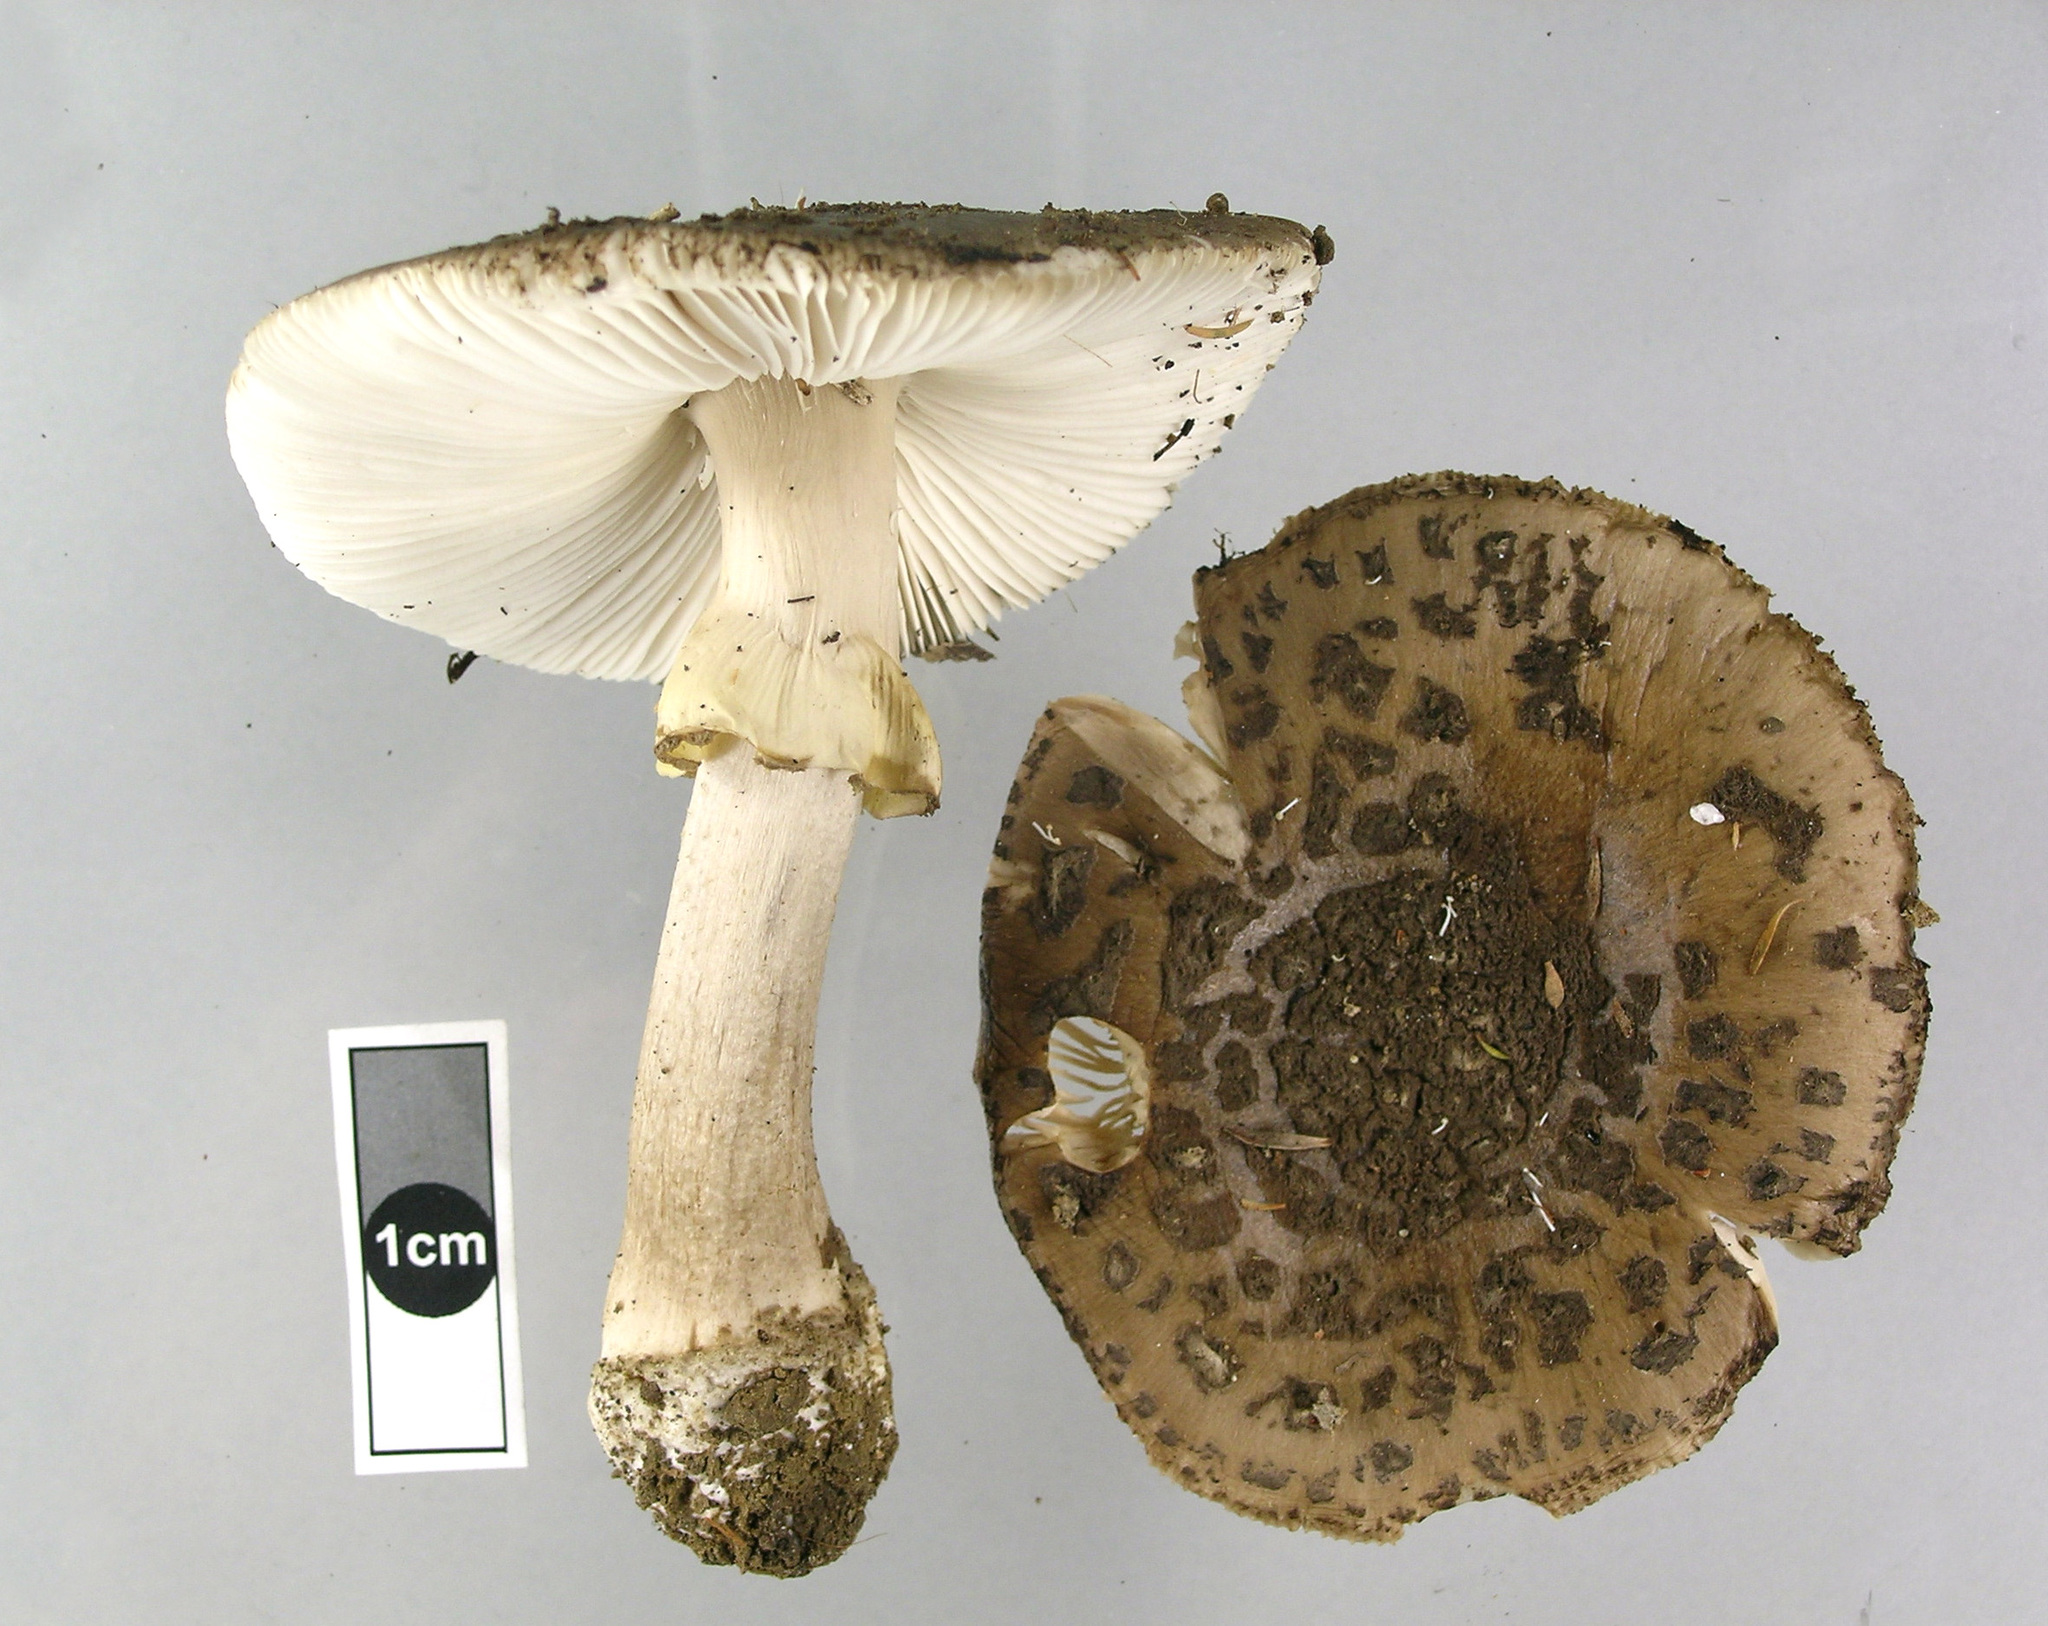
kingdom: Fungi
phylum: Basidiomycota
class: Agaricomycetes
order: Agaricales
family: Amanitaceae
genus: Amanita
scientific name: Amanita nothofagi
